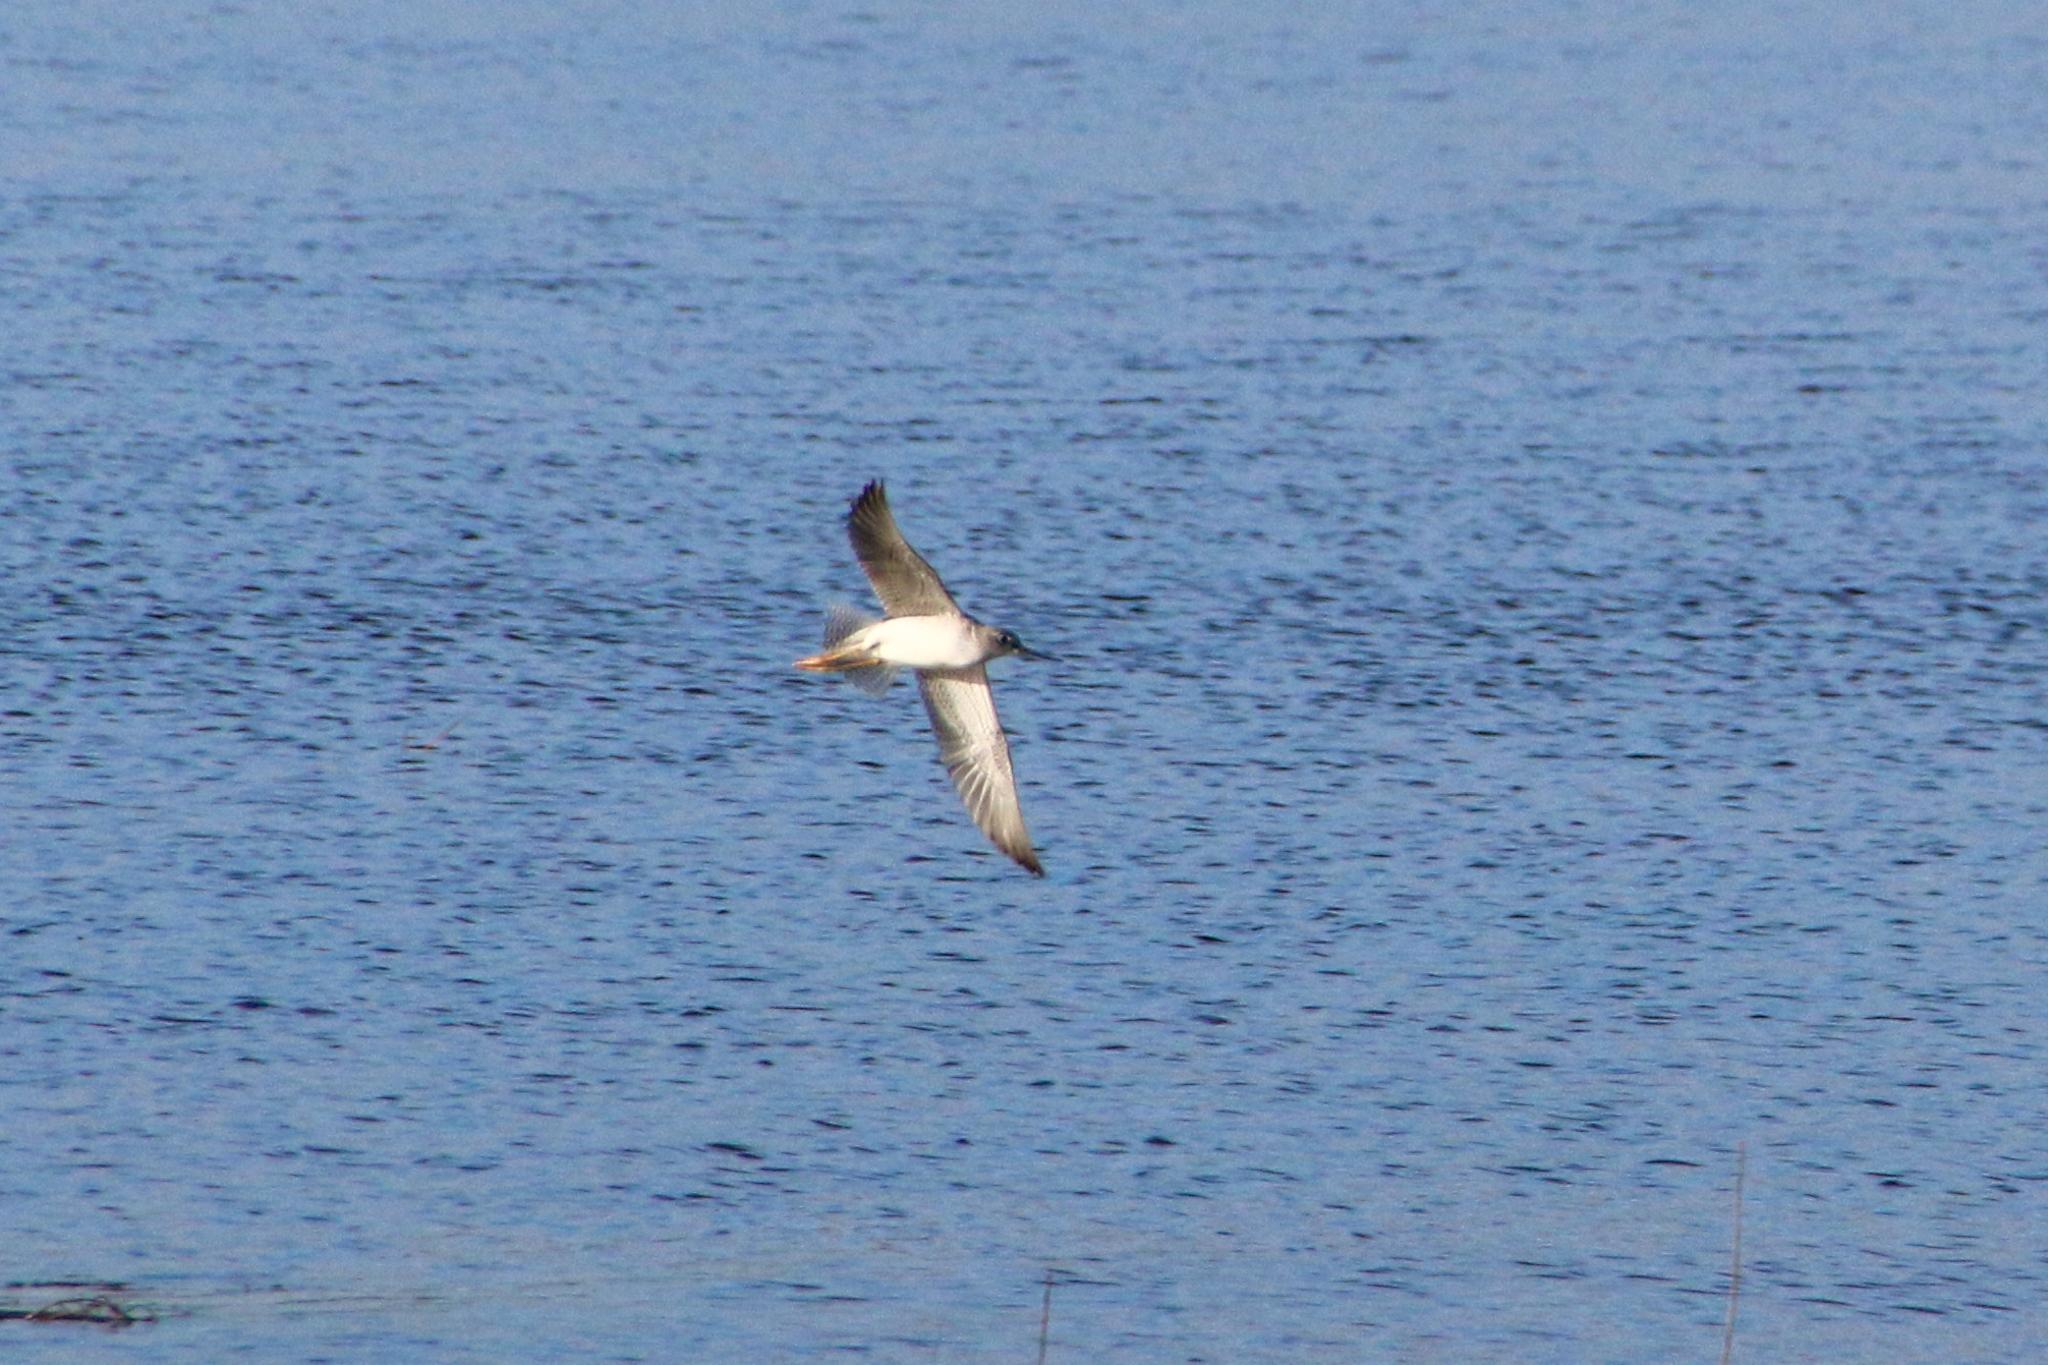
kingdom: Animalia
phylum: Chordata
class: Aves
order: Charadriiformes
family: Scolopacidae
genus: Tringa
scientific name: Tringa melanoleuca
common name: Greater yellowlegs
